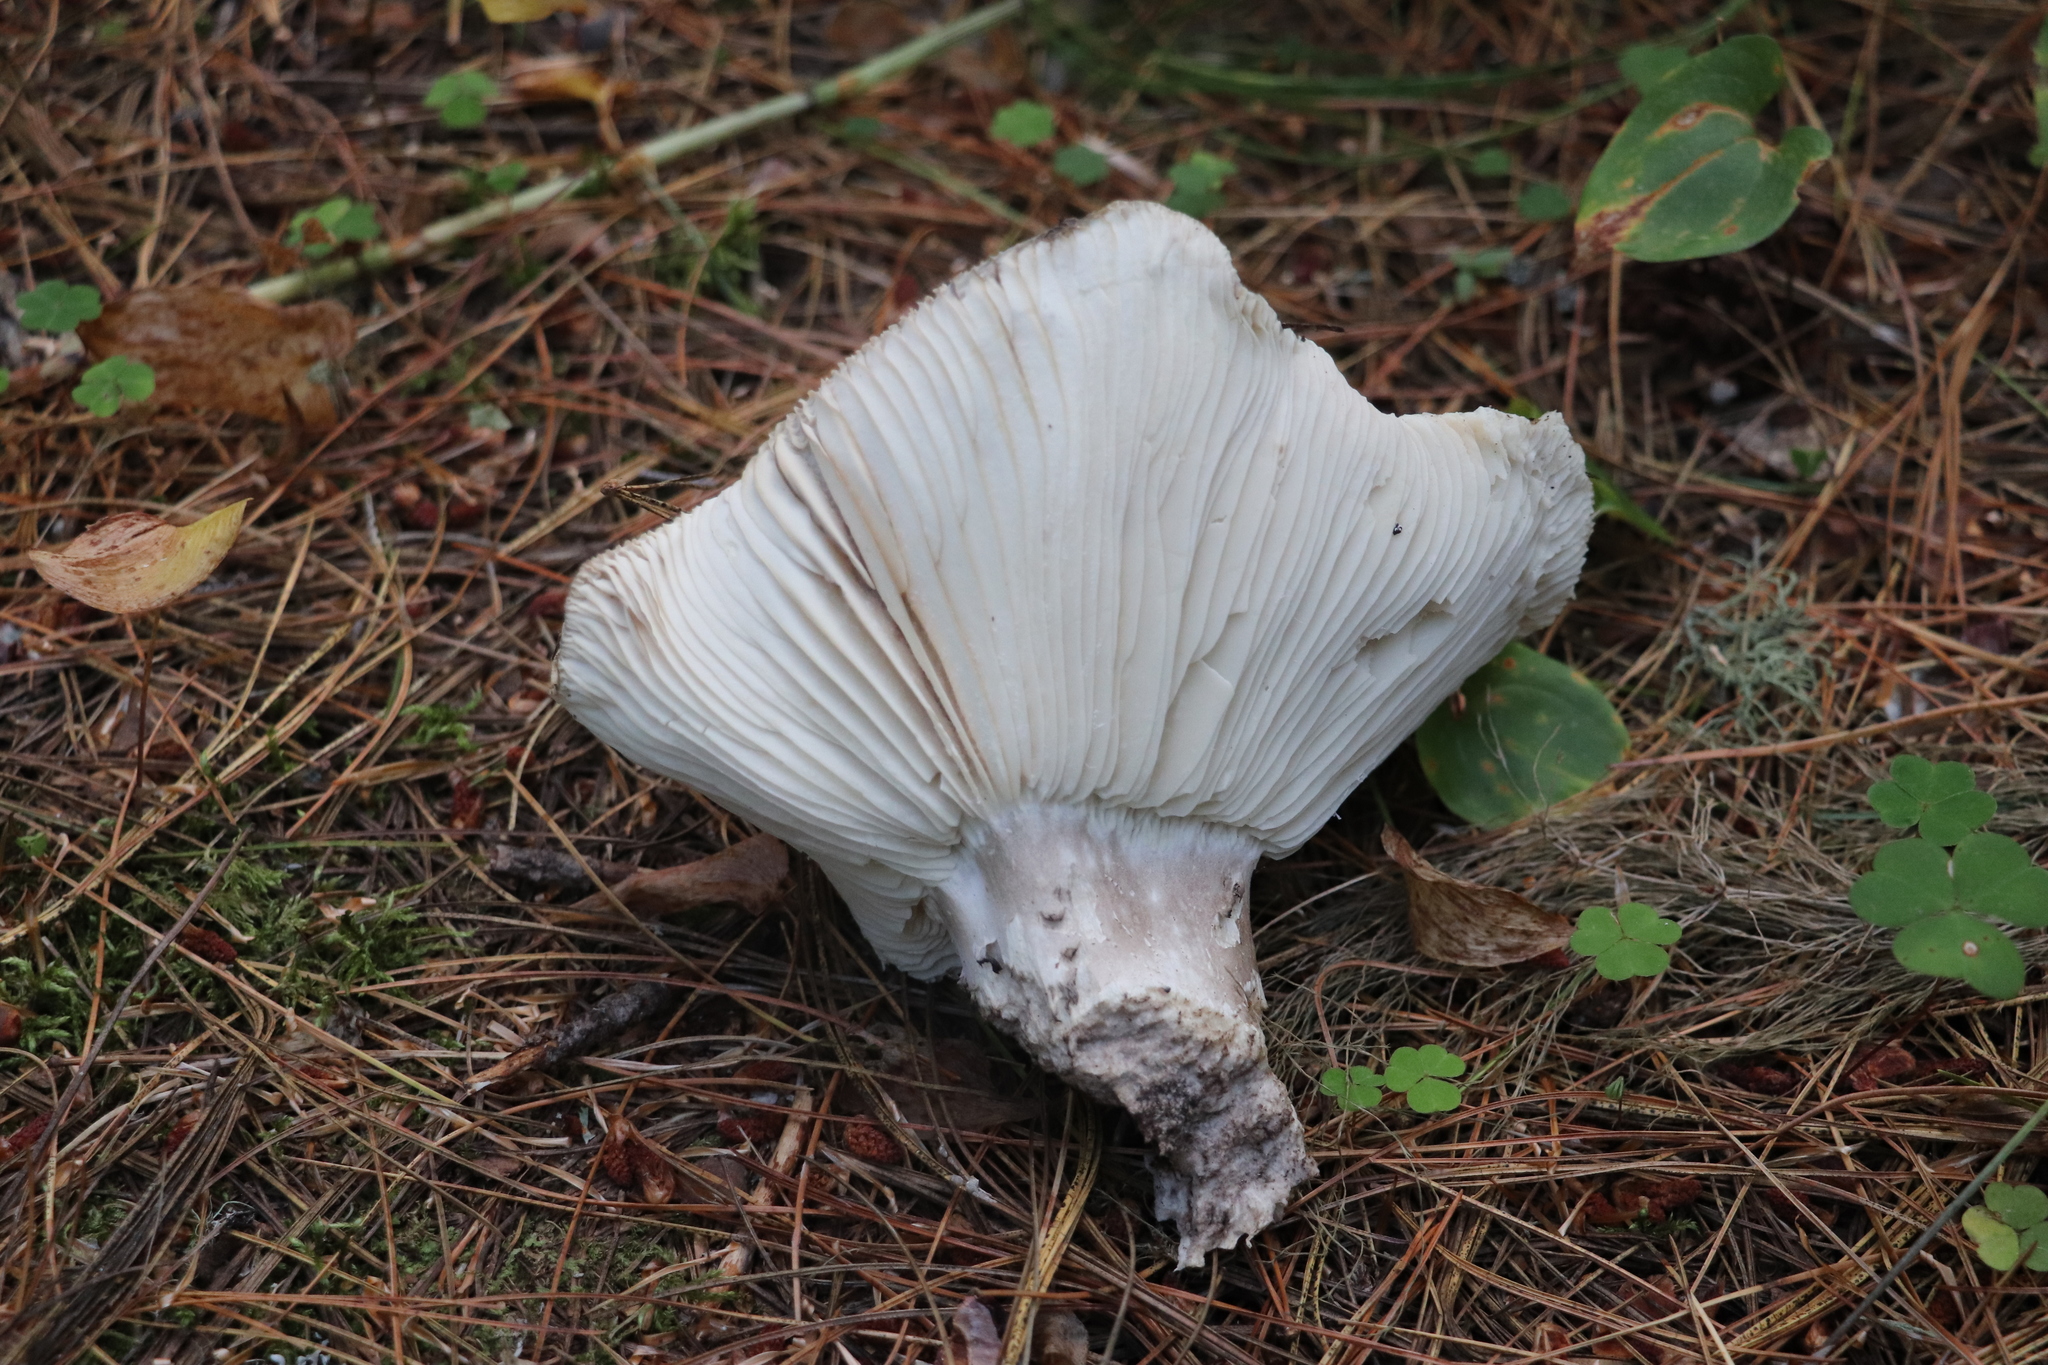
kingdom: Fungi
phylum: Basidiomycota
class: Agaricomycetes
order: Russulales
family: Russulaceae
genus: Russula
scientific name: Russula adusta
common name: Winecork brittlegill
